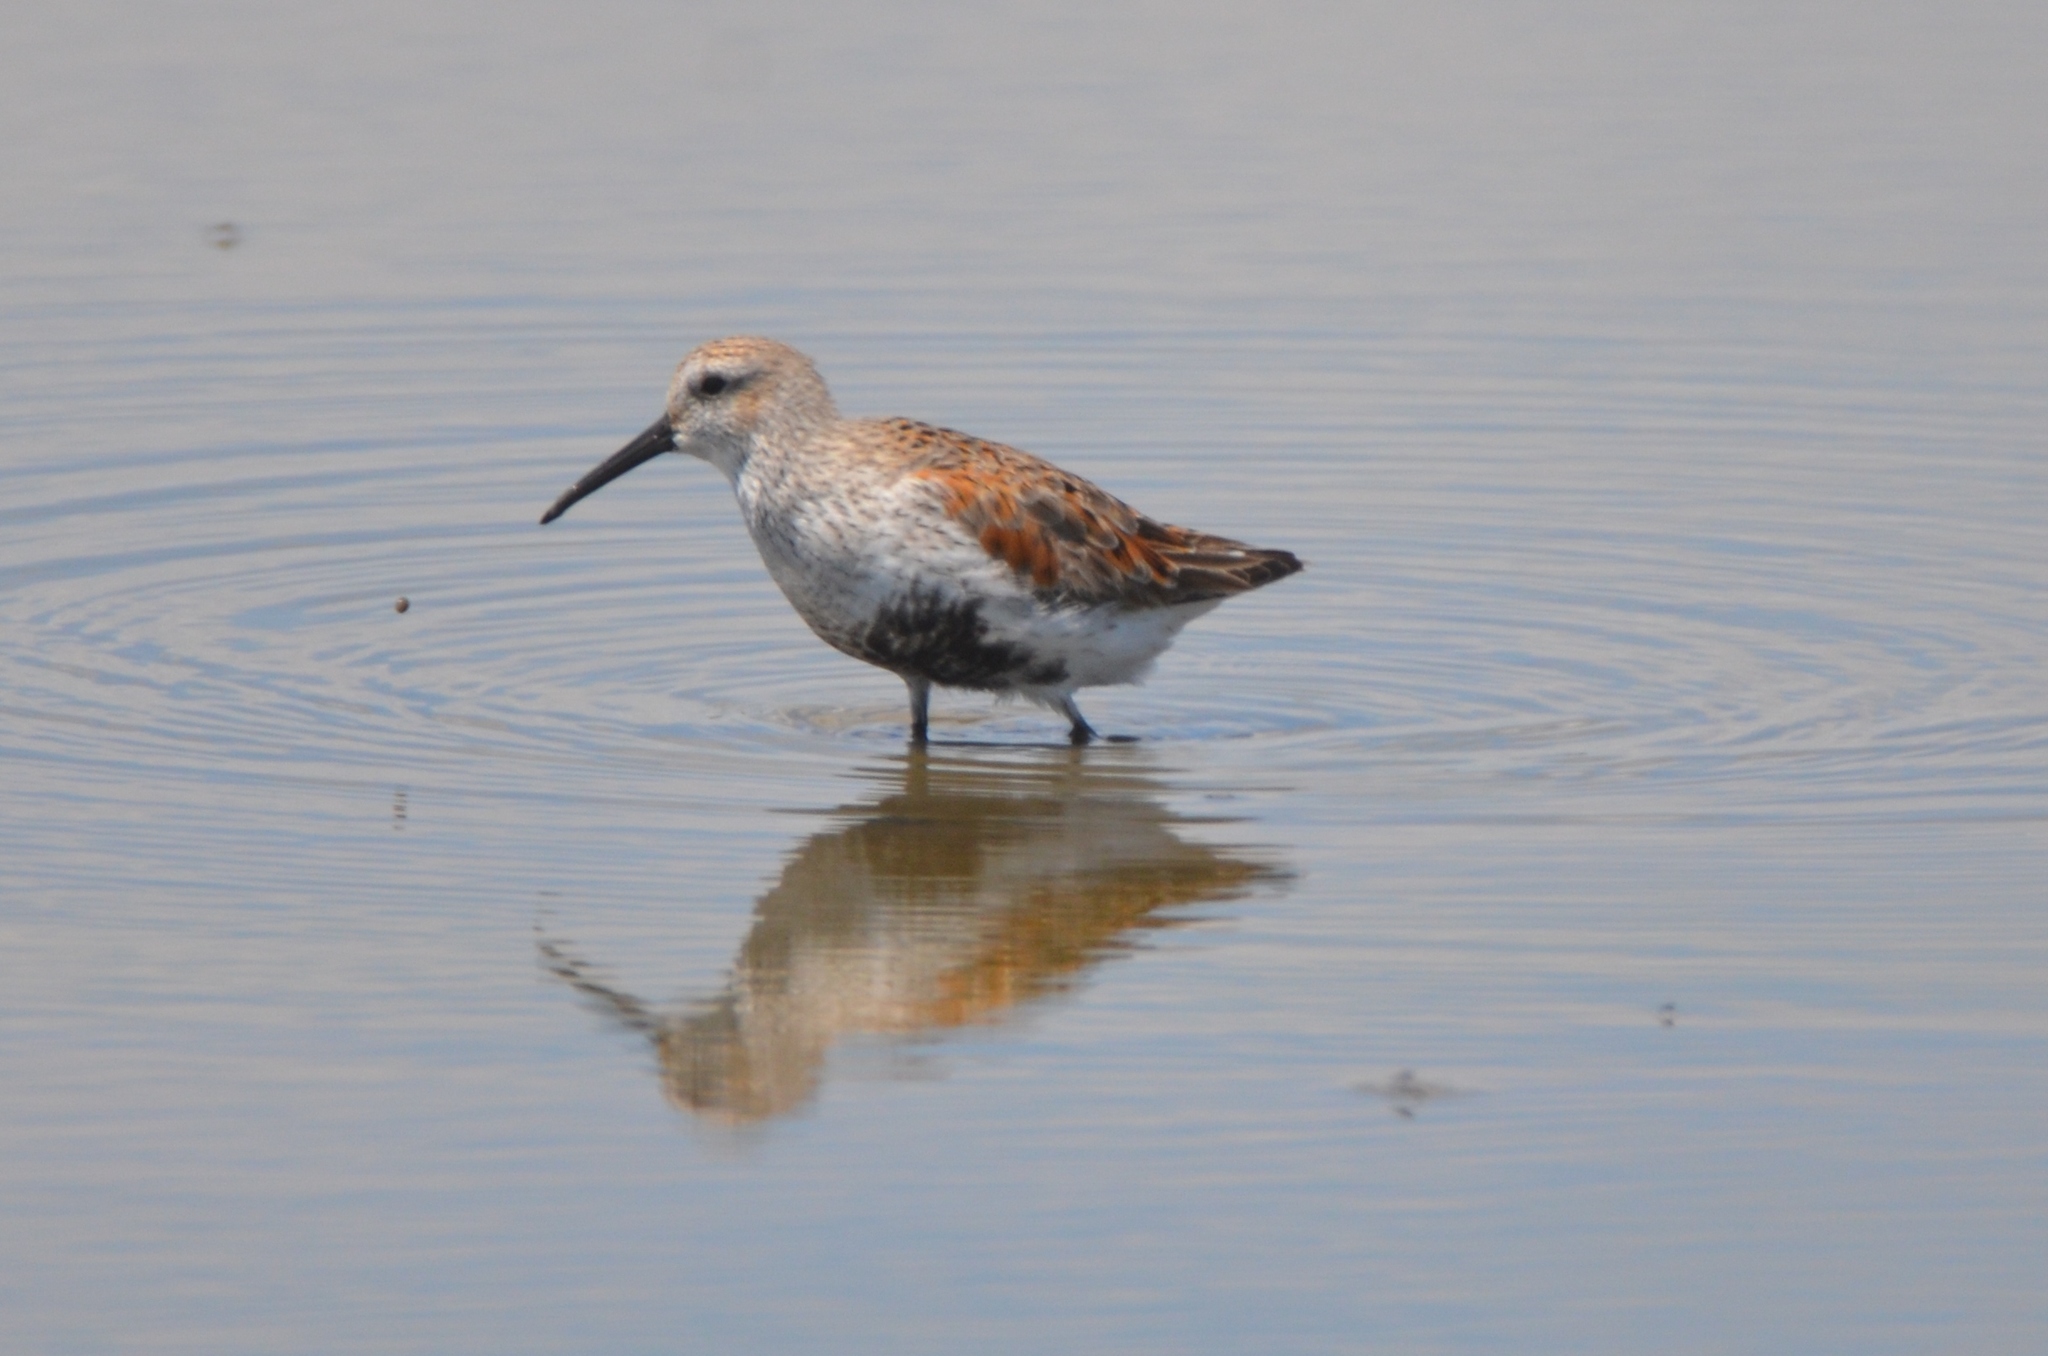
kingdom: Animalia
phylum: Chordata
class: Aves
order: Charadriiformes
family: Scolopacidae
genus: Calidris
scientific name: Calidris alpina
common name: Dunlin
